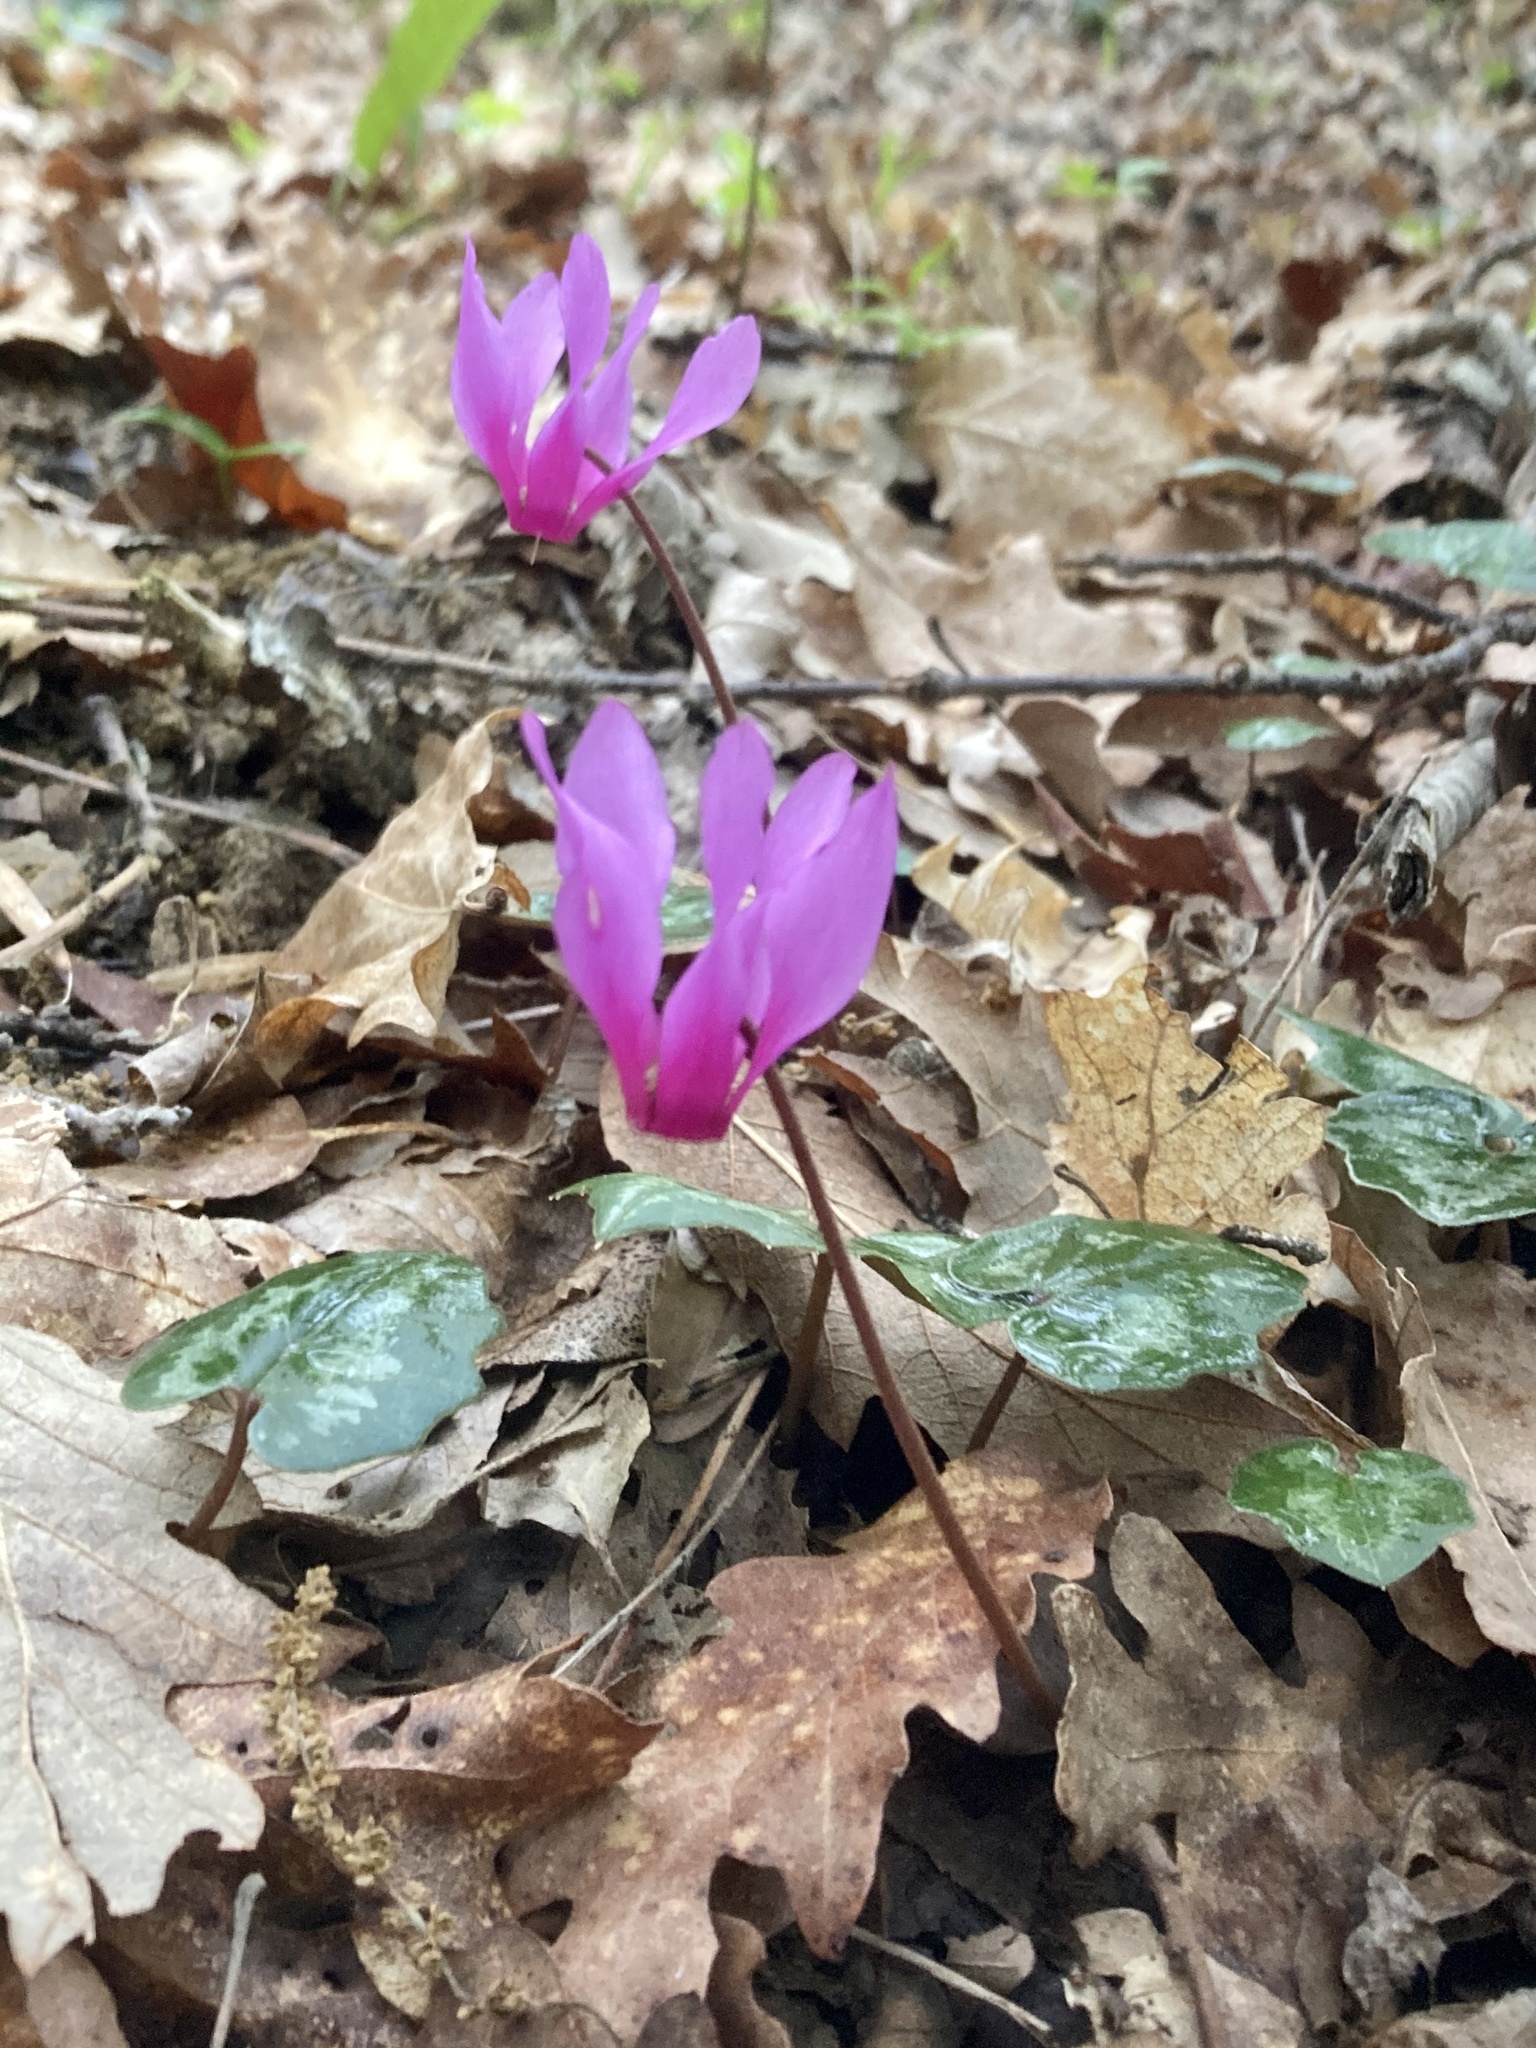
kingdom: Plantae
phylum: Tracheophyta
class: Magnoliopsida
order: Ericales
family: Primulaceae
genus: Cyclamen
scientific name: Cyclamen repandum
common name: Spring sowbread
